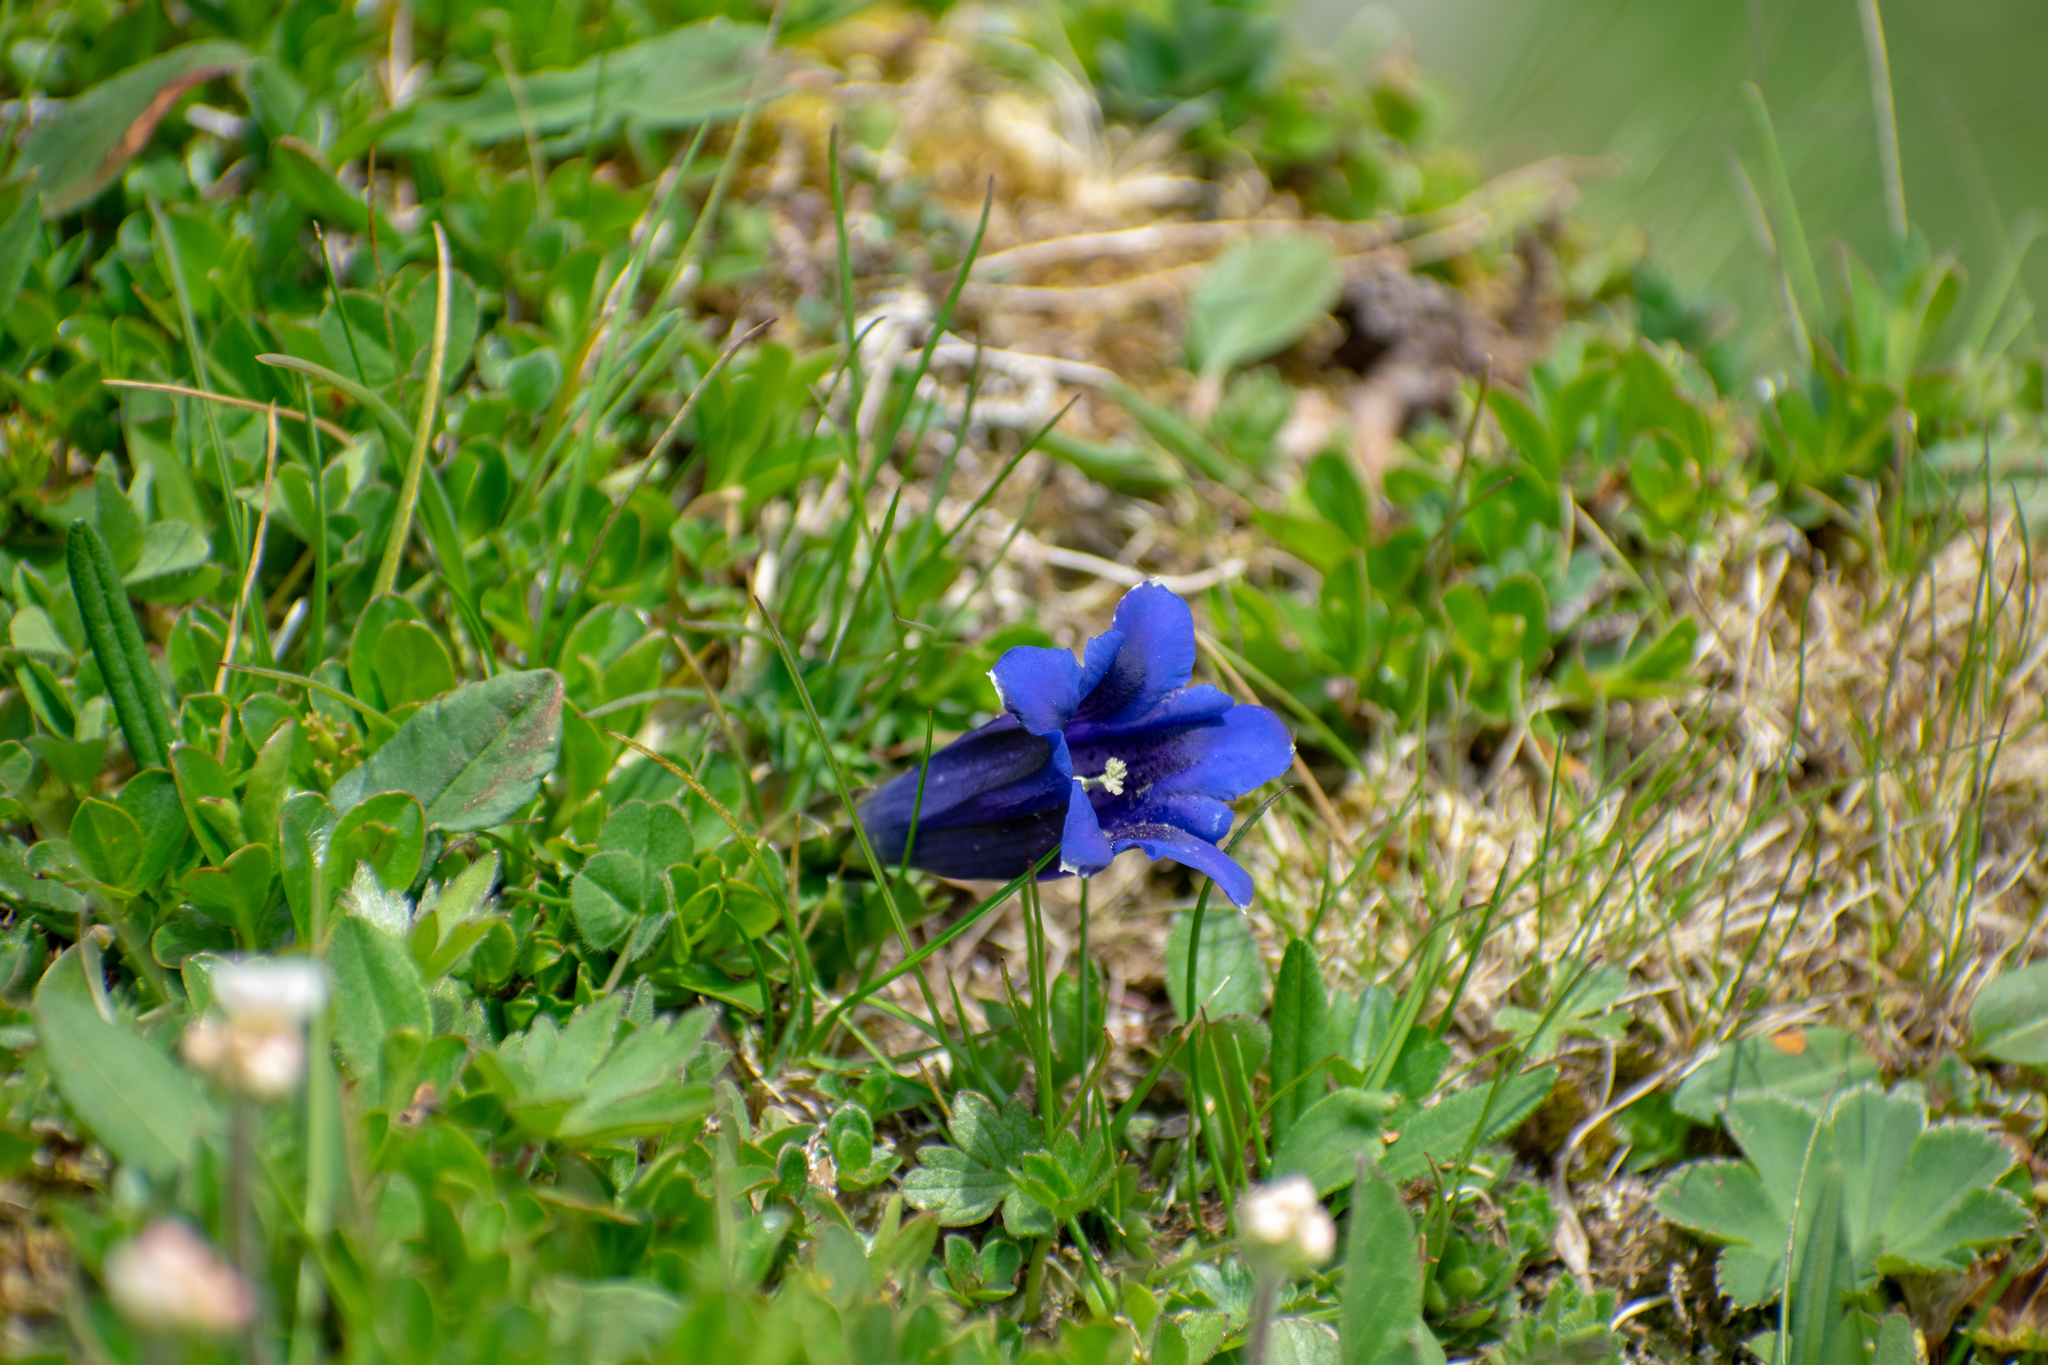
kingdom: Plantae
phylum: Tracheophyta
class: Magnoliopsida
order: Gentianales
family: Gentianaceae
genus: Gentiana
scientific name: Gentiana clusii
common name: Trumpet gentian
